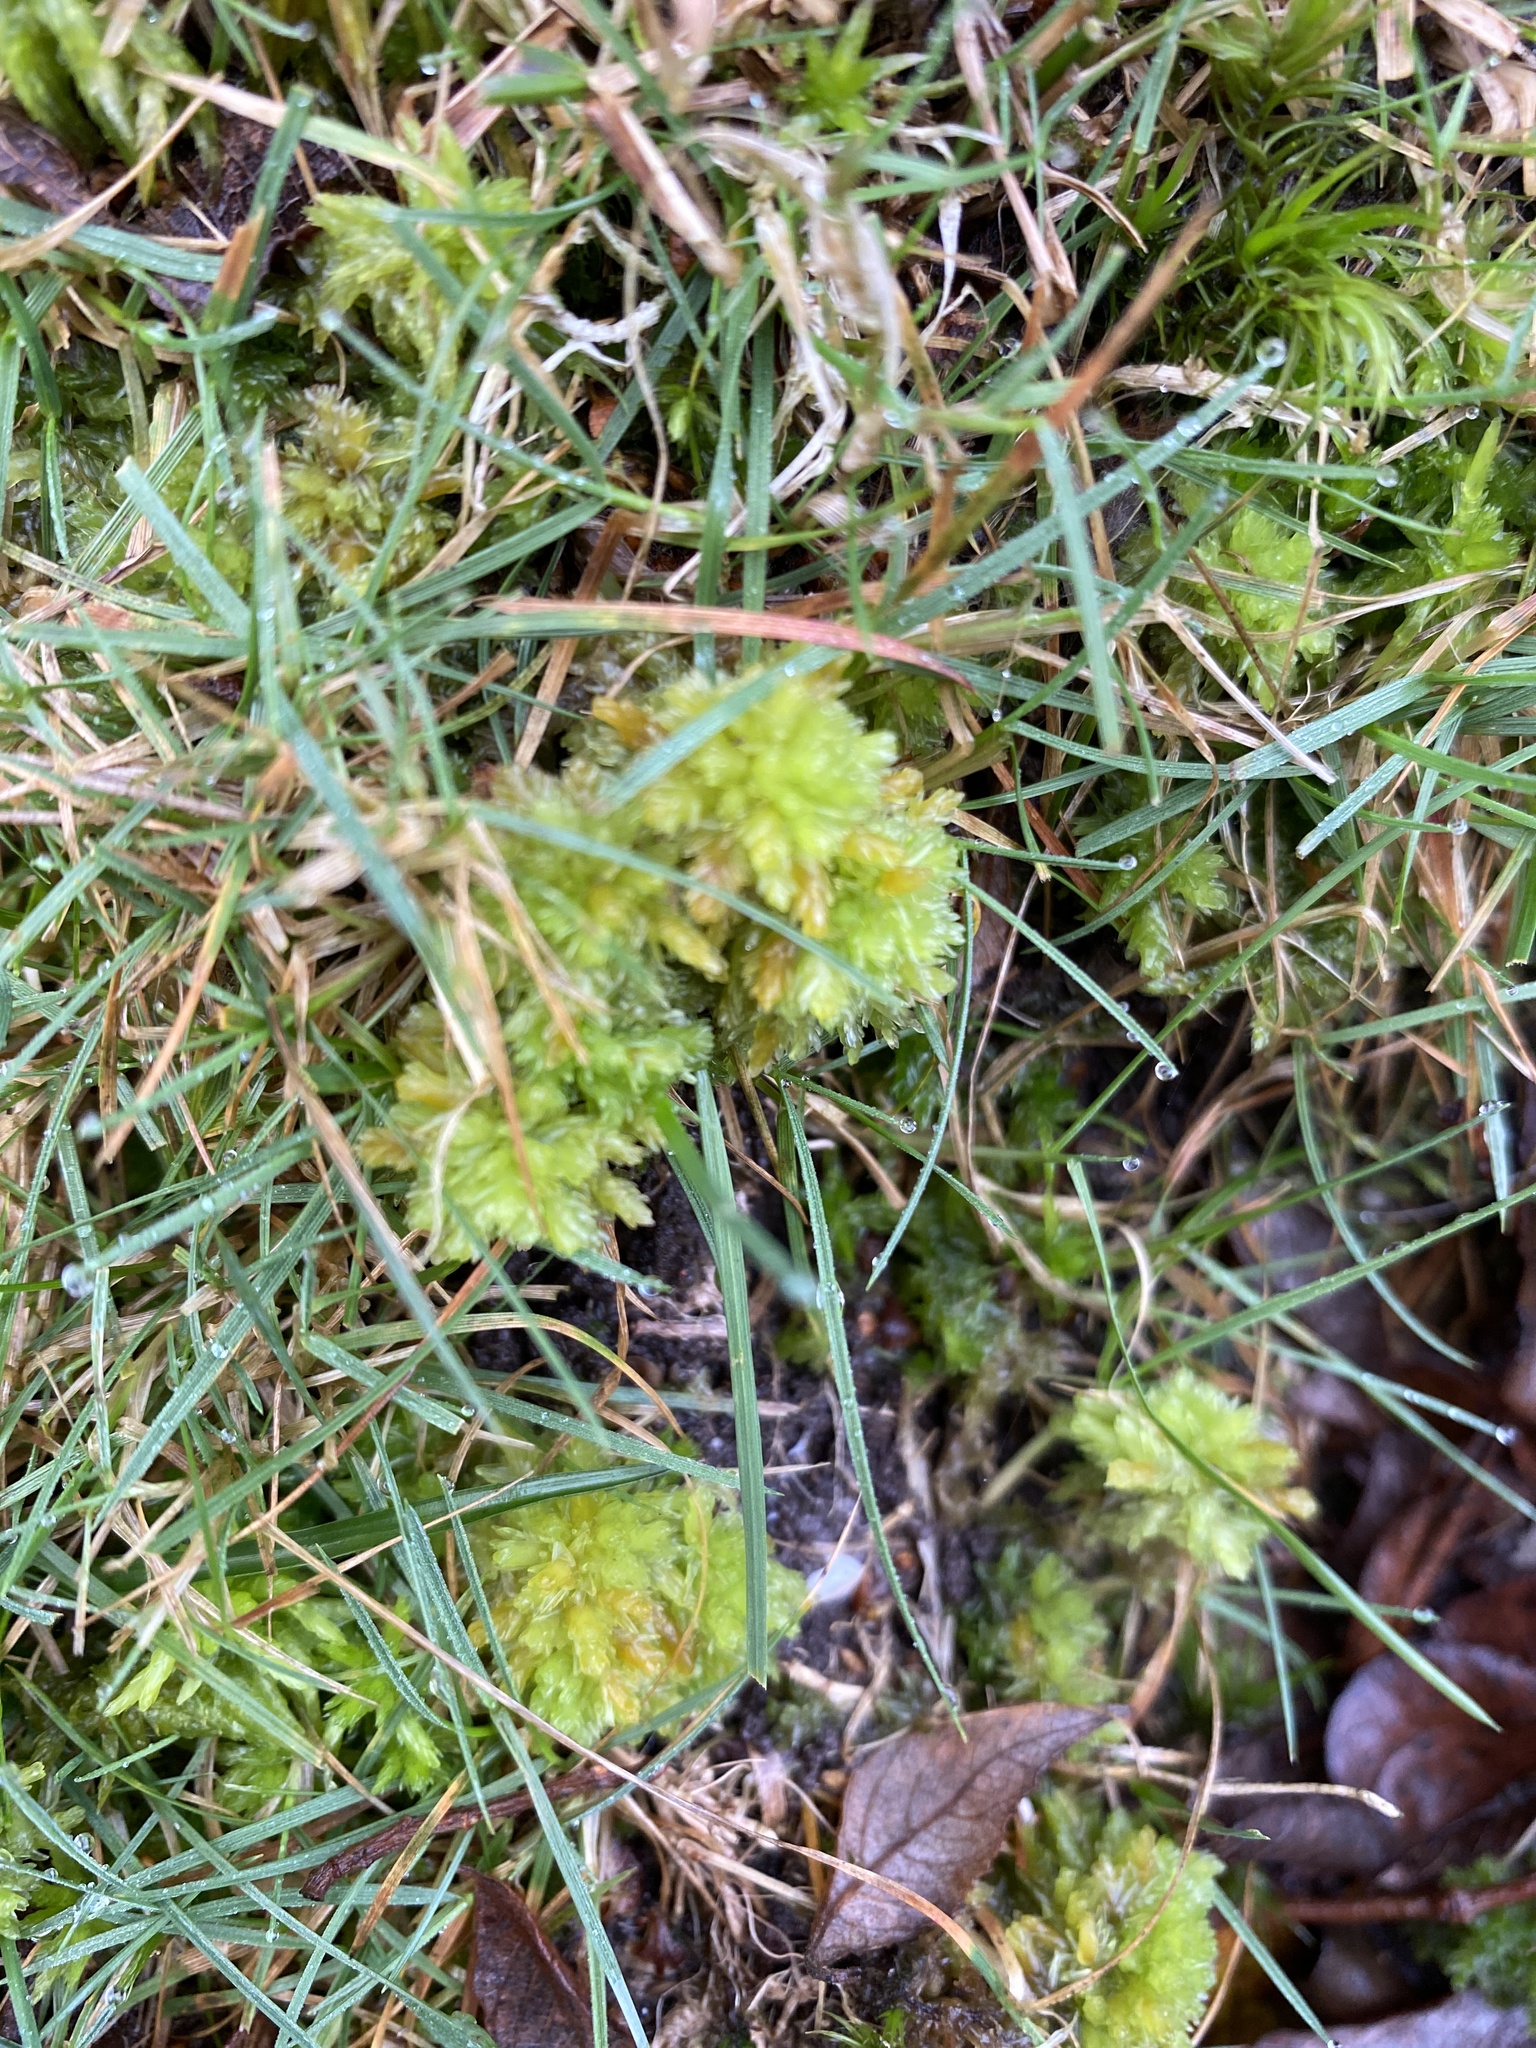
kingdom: Plantae
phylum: Bryophyta
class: Sphagnopsida
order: Sphagnales
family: Sphagnaceae
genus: Sphagnum
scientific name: Sphagnum compactum
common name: Compact peat moss
